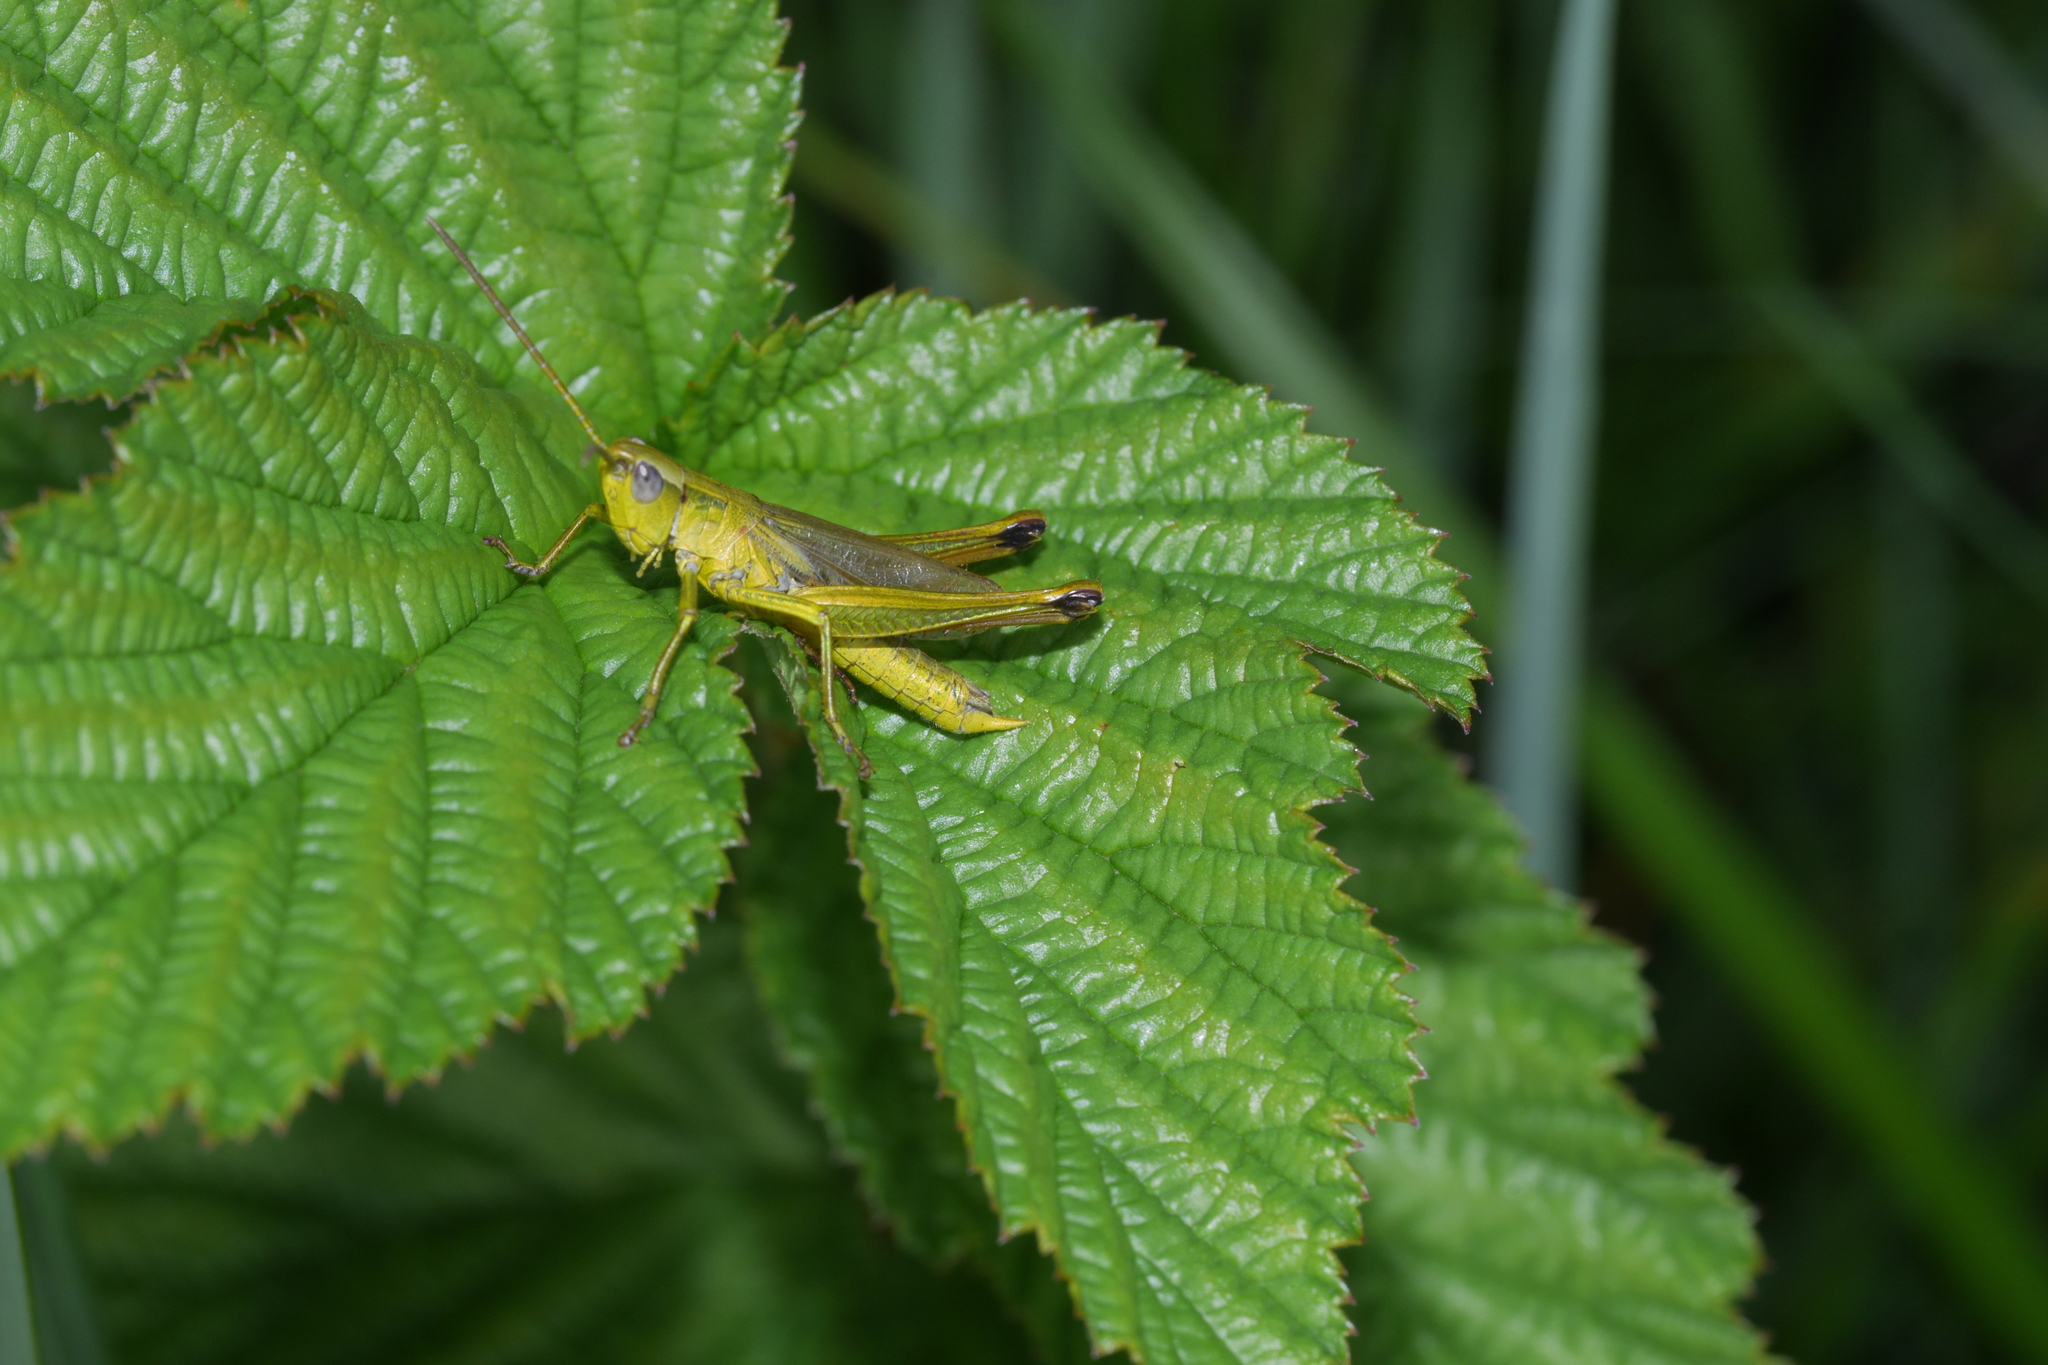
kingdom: Animalia
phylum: Arthropoda
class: Insecta
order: Orthoptera
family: Acrididae
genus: Chrysochraon
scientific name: Chrysochraon dispar
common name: Large gold grasshopper
